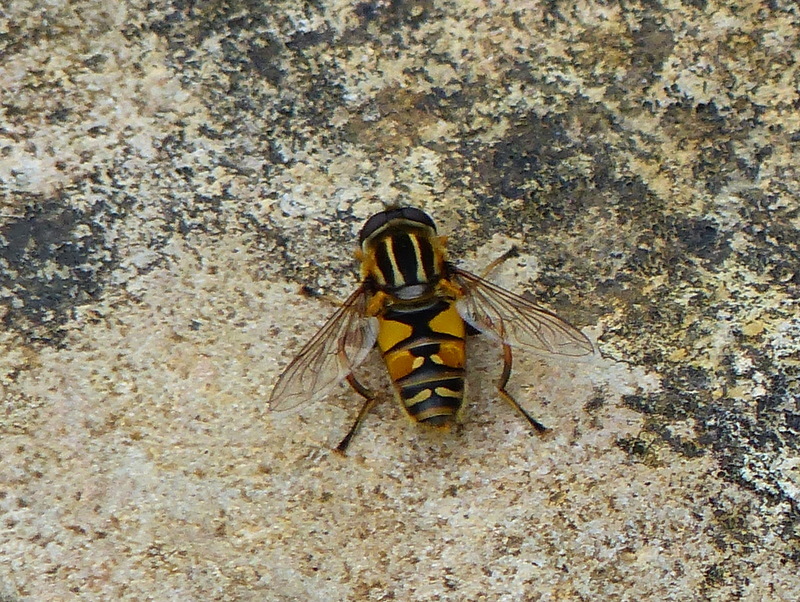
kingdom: Animalia
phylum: Arthropoda
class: Insecta
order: Diptera
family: Syrphidae
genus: Helophilus
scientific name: Helophilus pendulus
